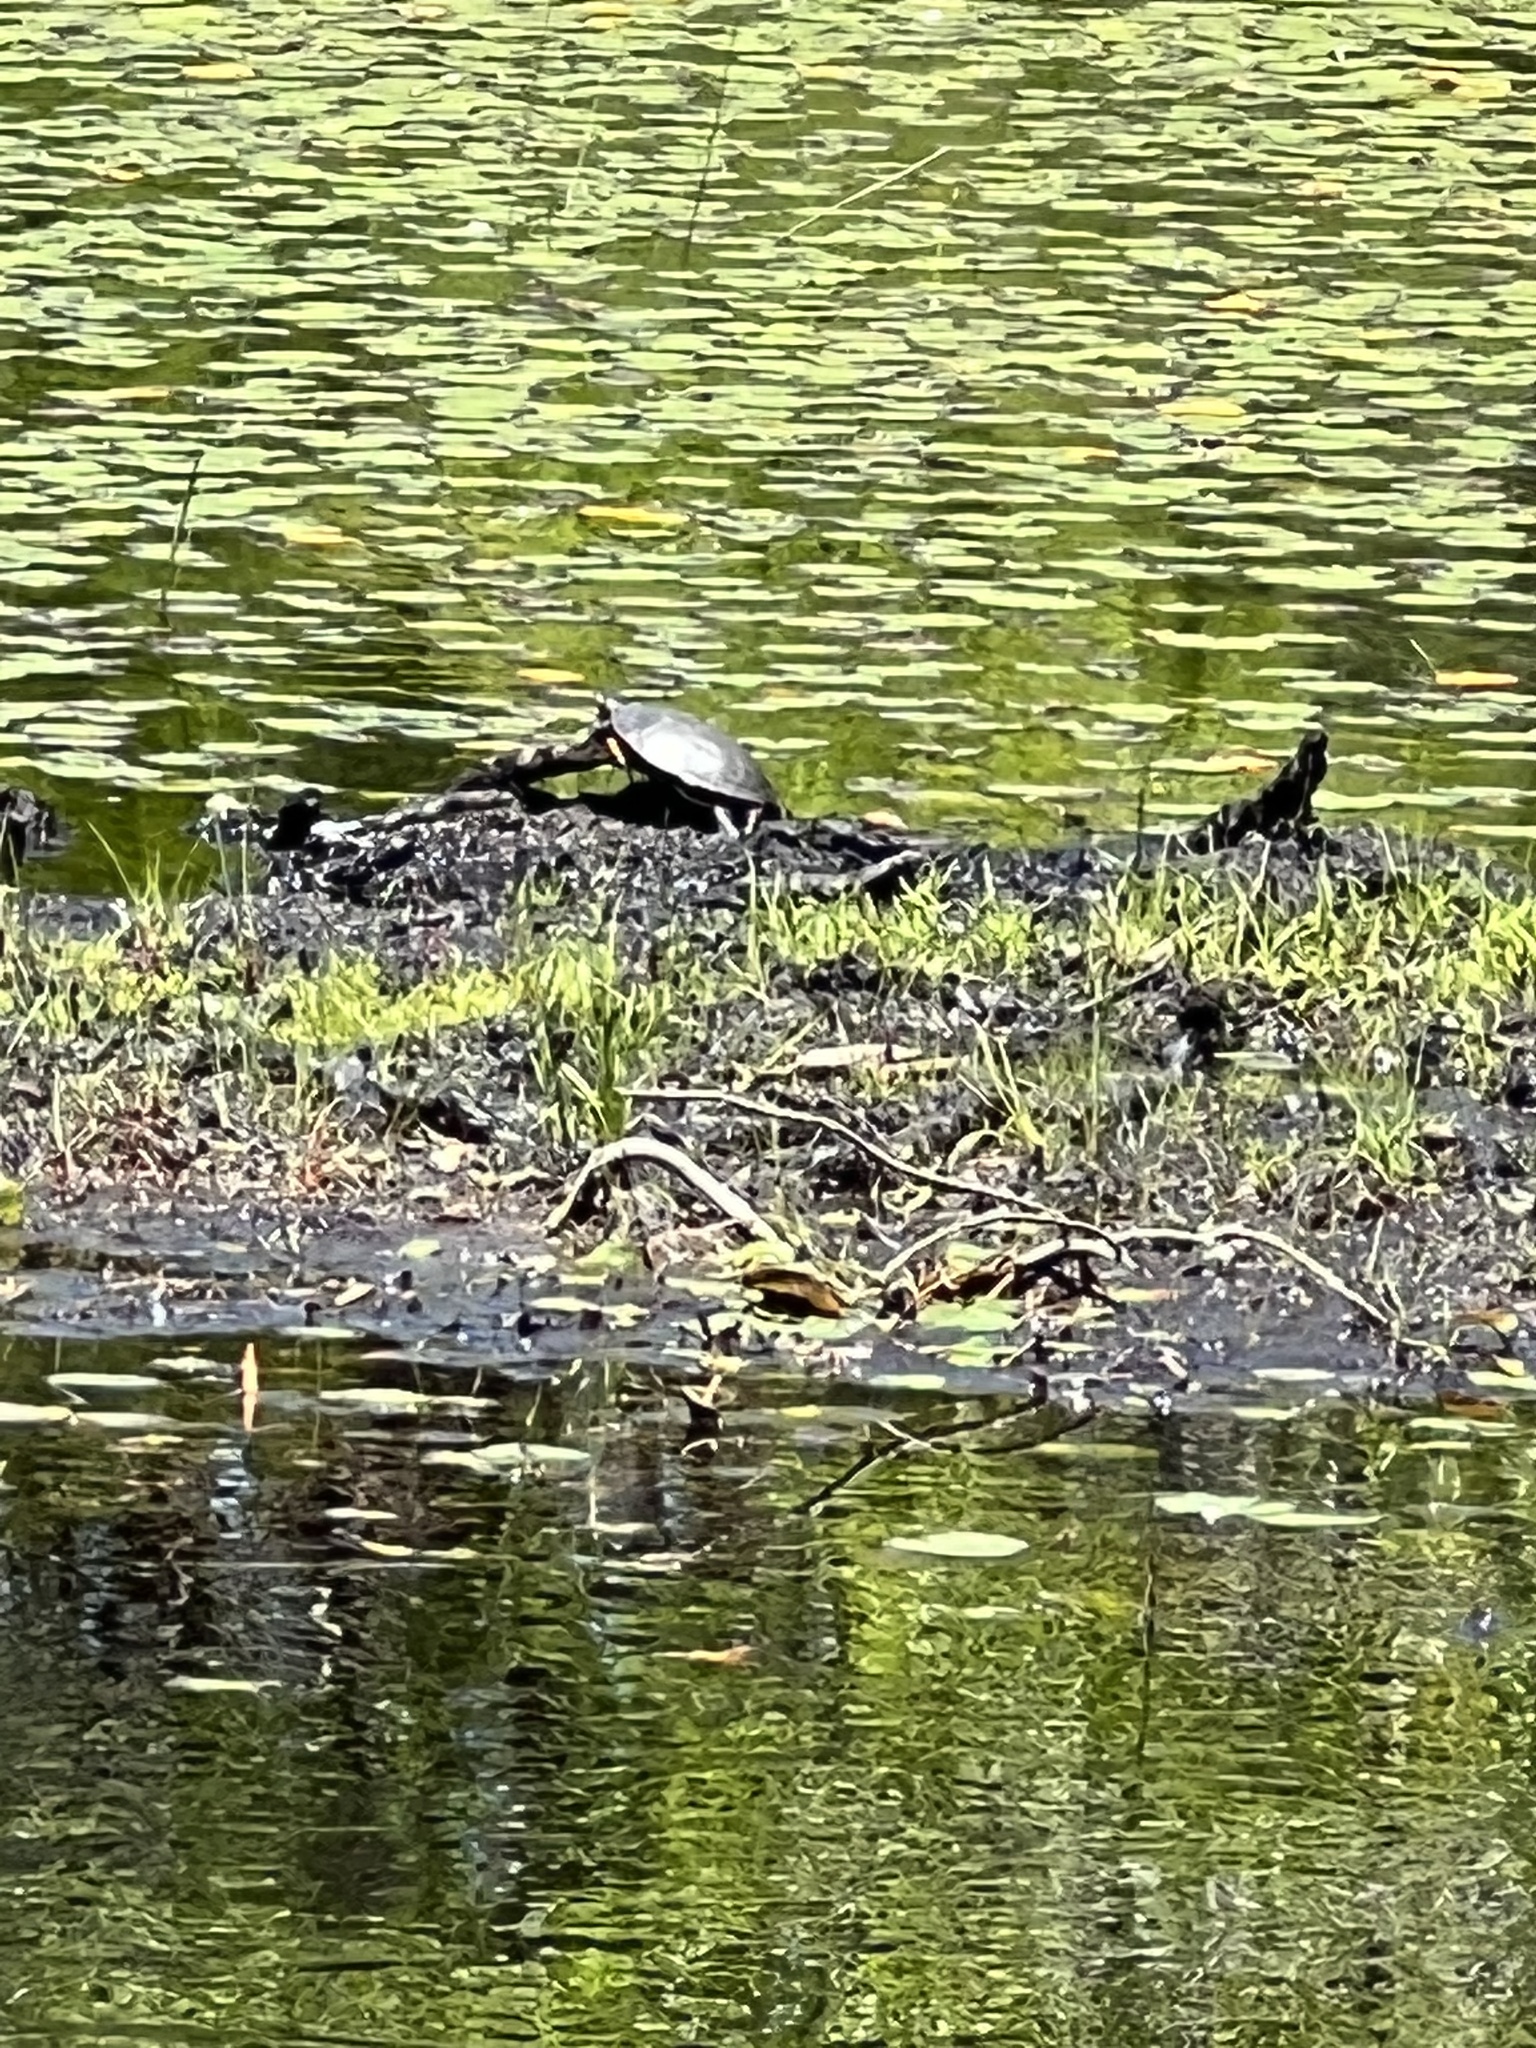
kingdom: Animalia
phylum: Chordata
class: Testudines
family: Emydidae
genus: Chrysemys
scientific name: Chrysemys picta
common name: Painted turtle
